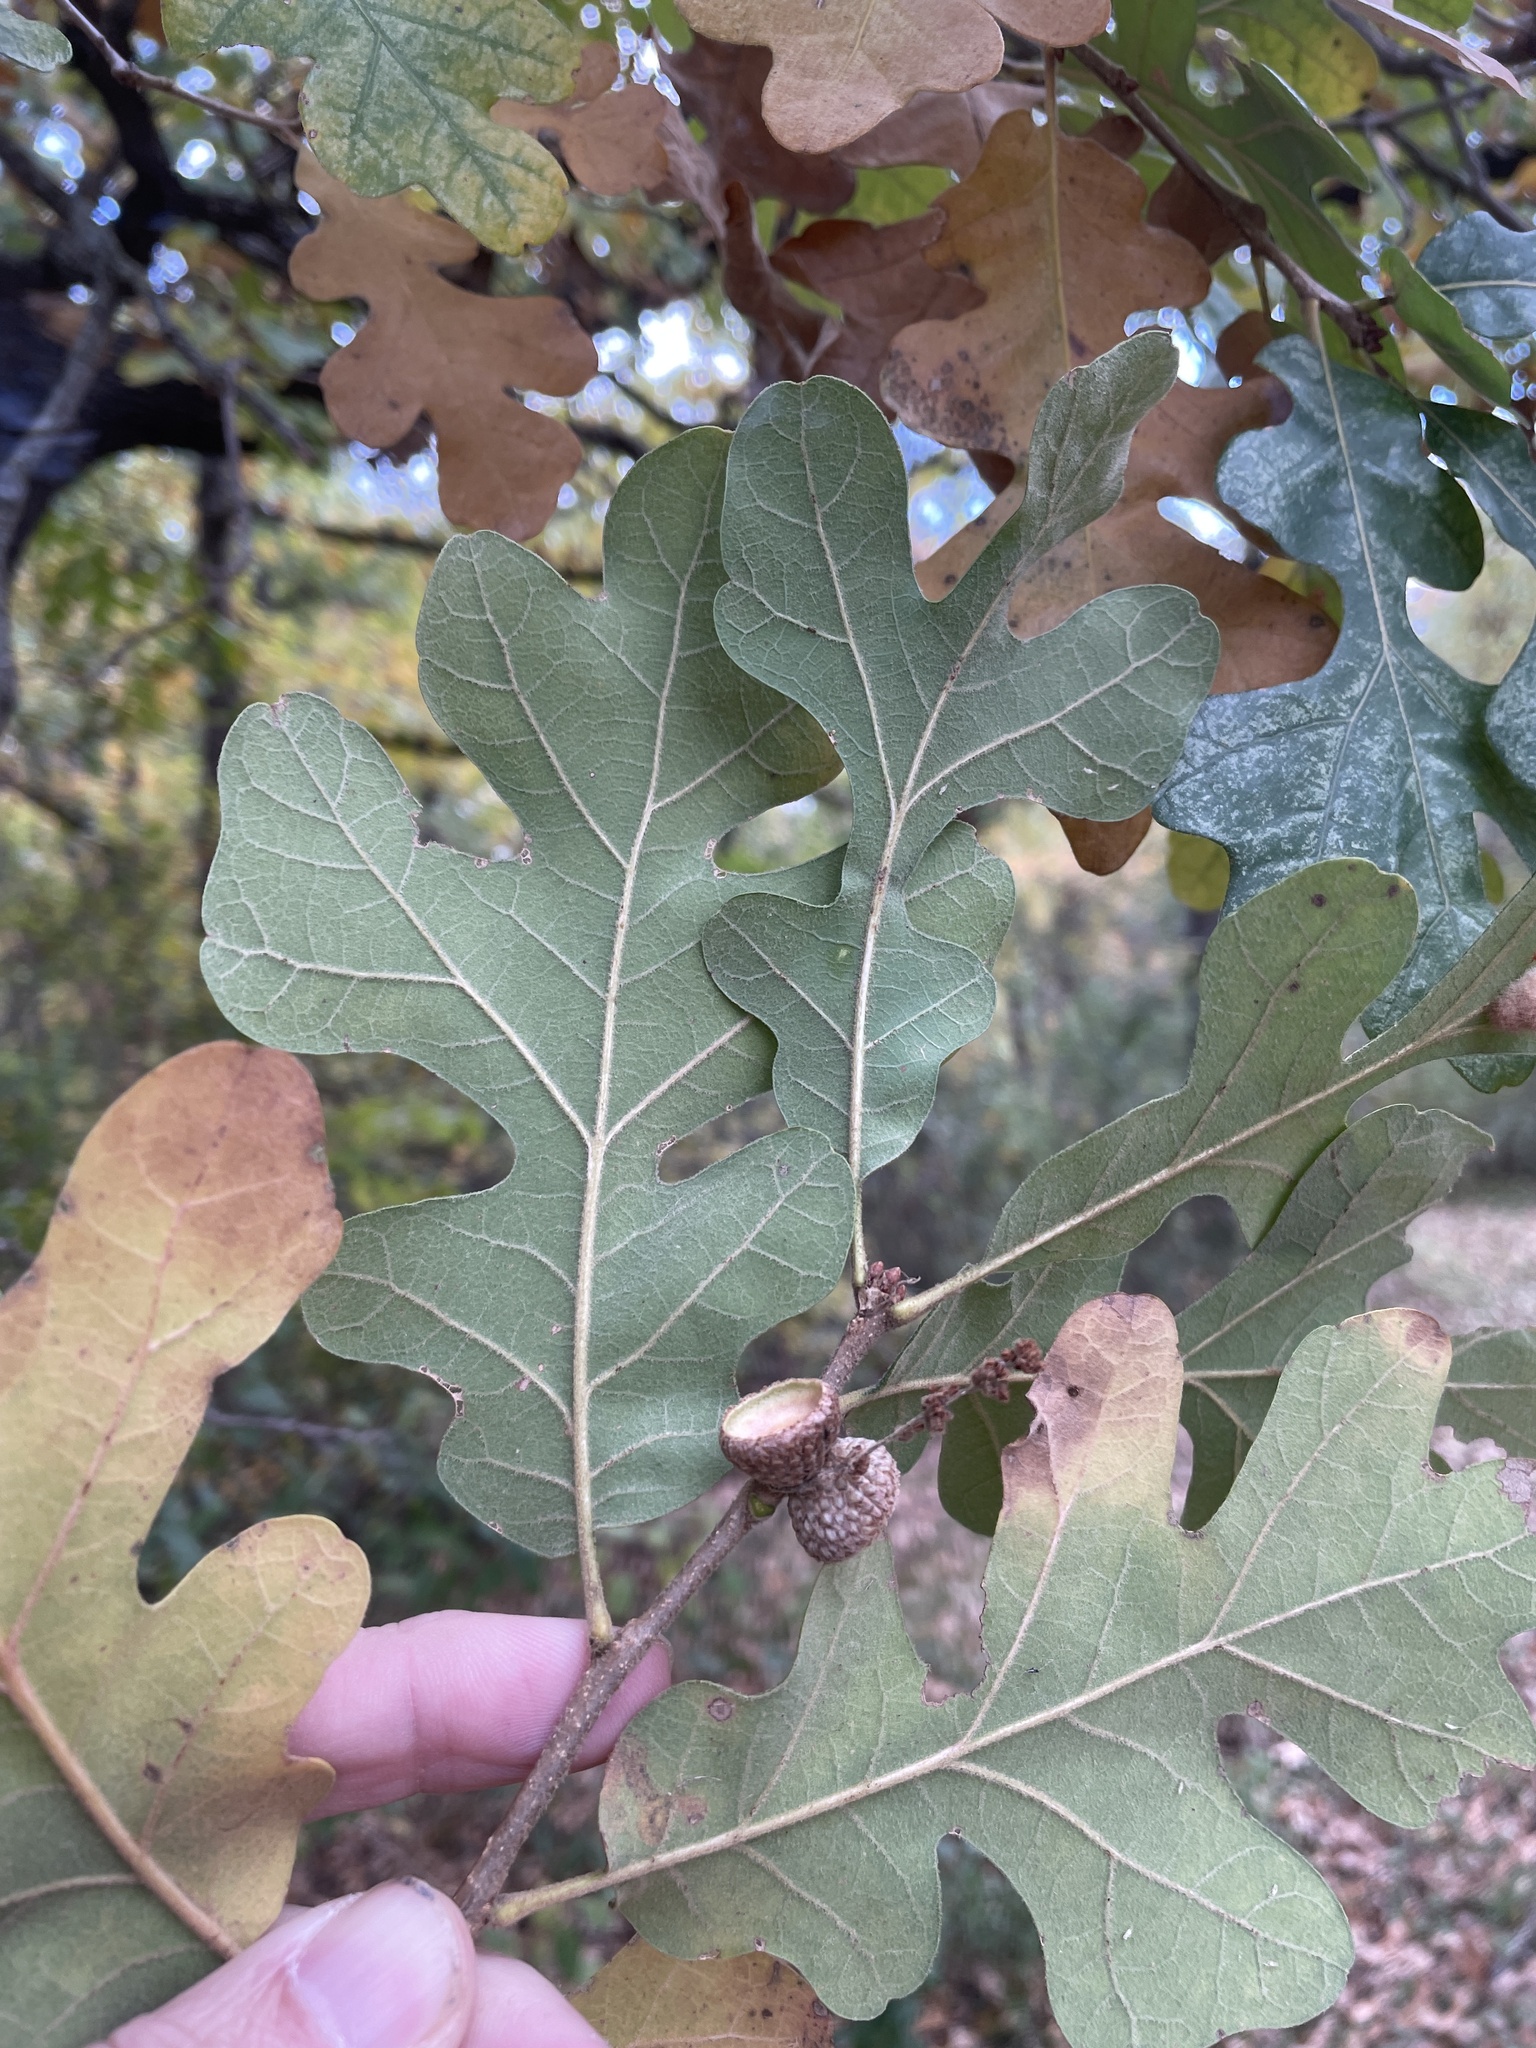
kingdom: Plantae
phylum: Tracheophyta
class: Magnoliopsida
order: Fagales
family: Fagaceae
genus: Quercus
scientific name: Quercus stellata
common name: Post oak
